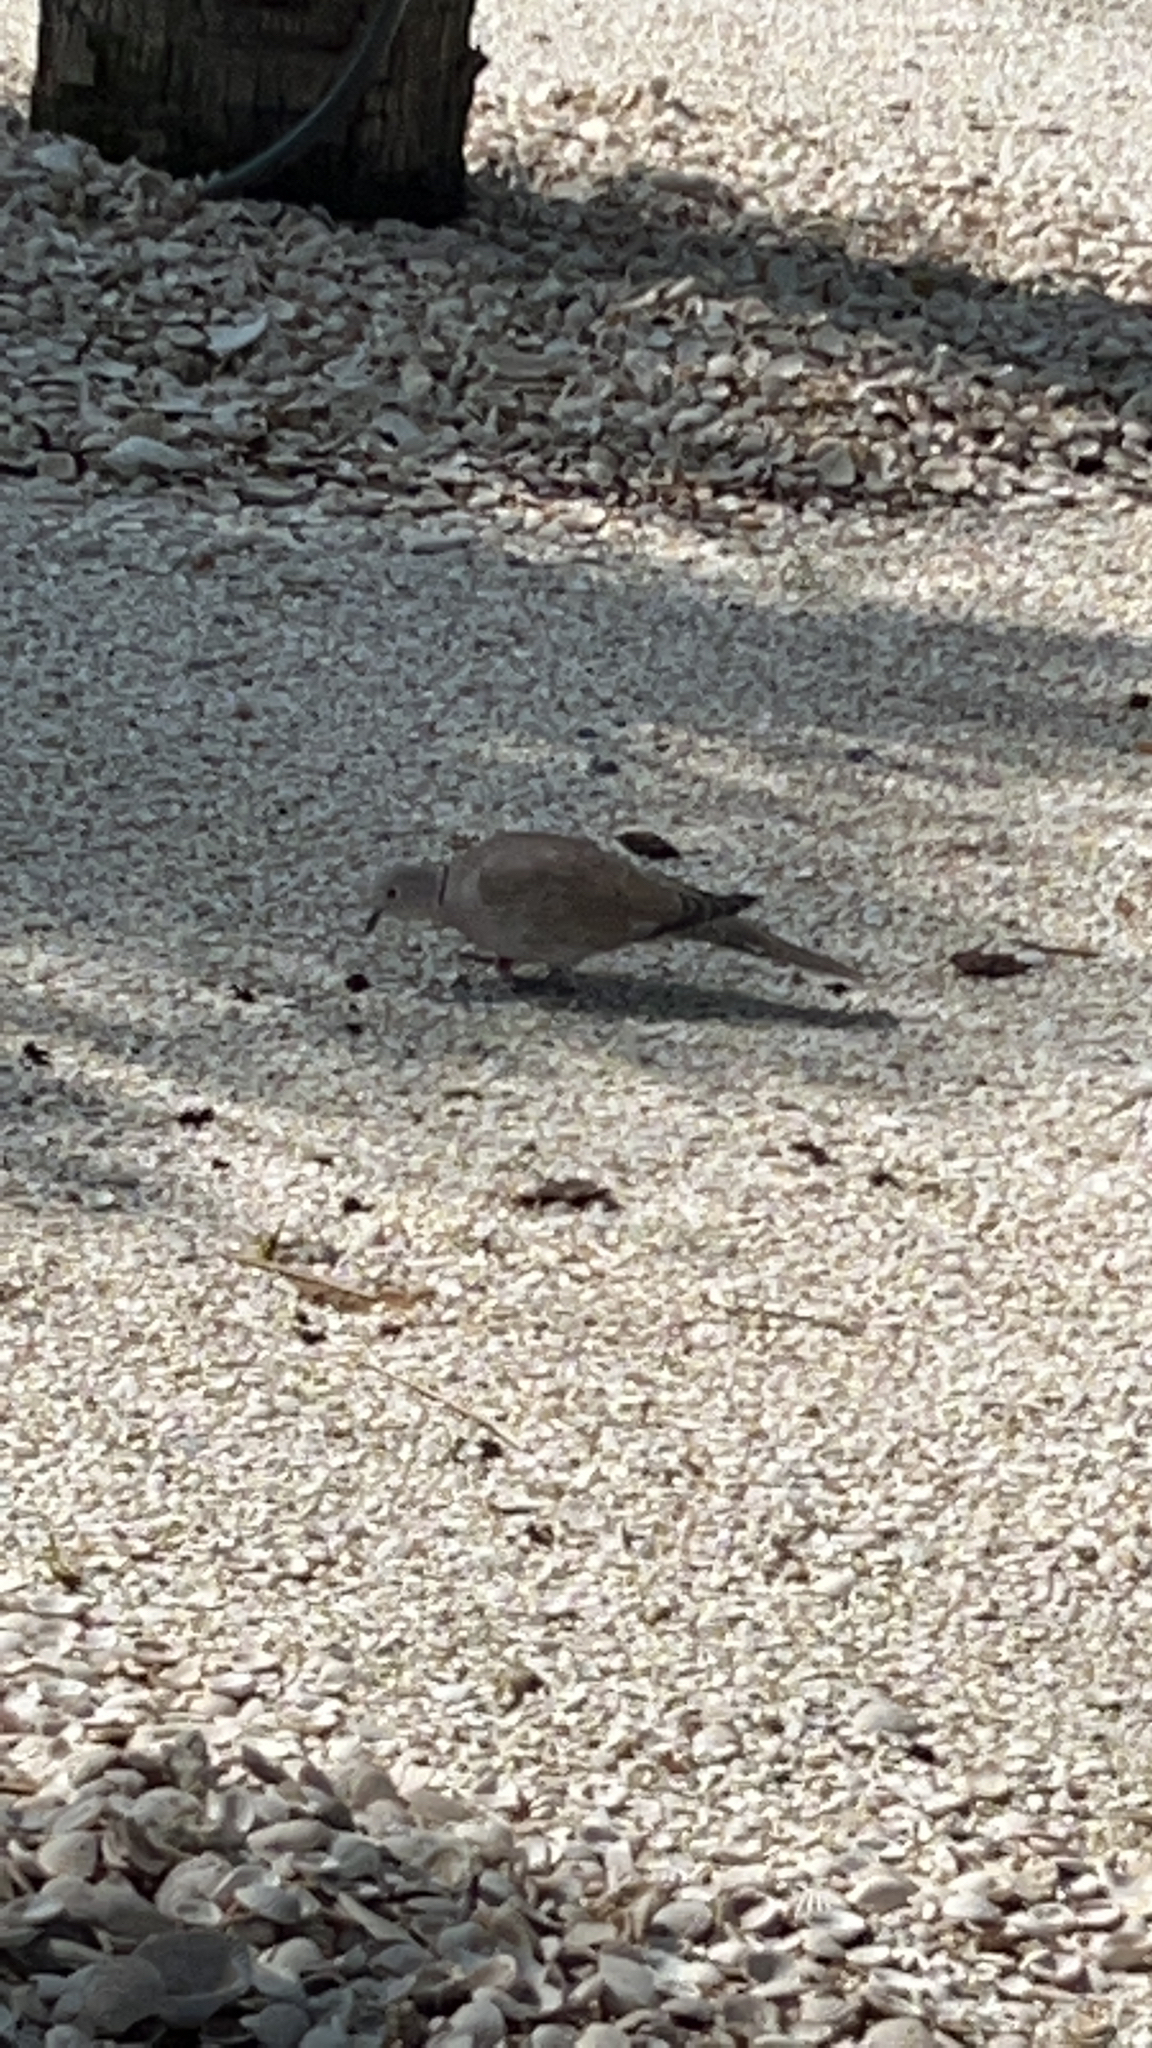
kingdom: Animalia
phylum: Chordata
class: Aves
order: Columbiformes
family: Columbidae
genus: Streptopelia
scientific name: Streptopelia decaocto
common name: Eurasian collared dove
